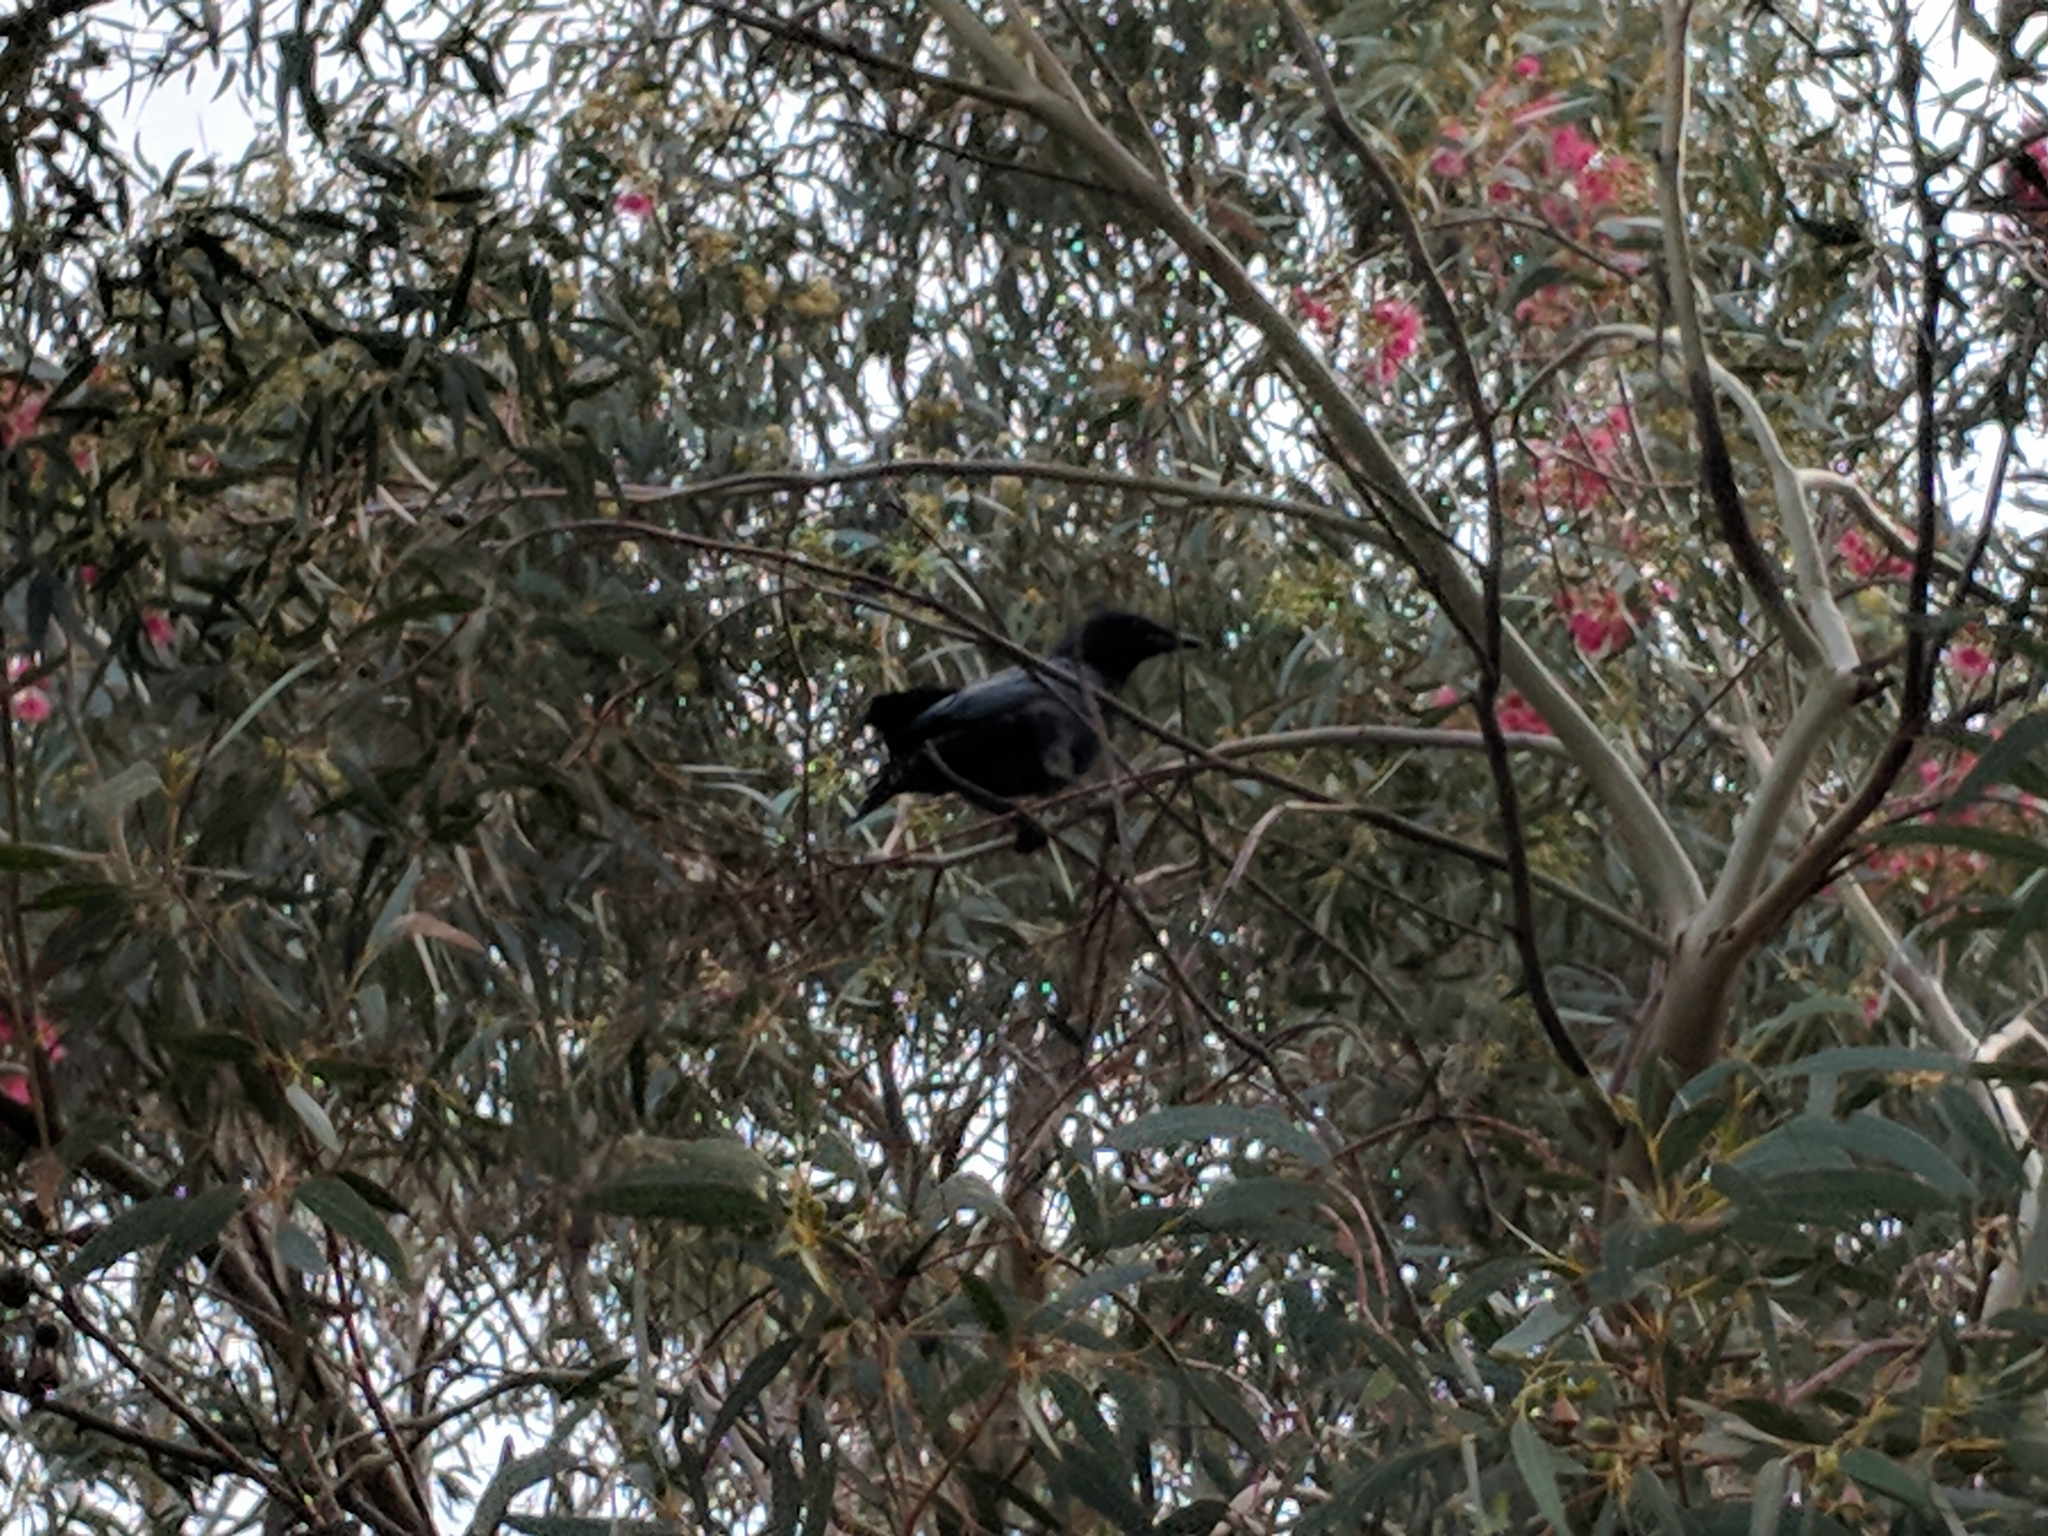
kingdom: Animalia
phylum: Chordata
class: Aves
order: Passeriformes
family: Corvidae
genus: Corvus
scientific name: Corvus mellori
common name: Little raven
